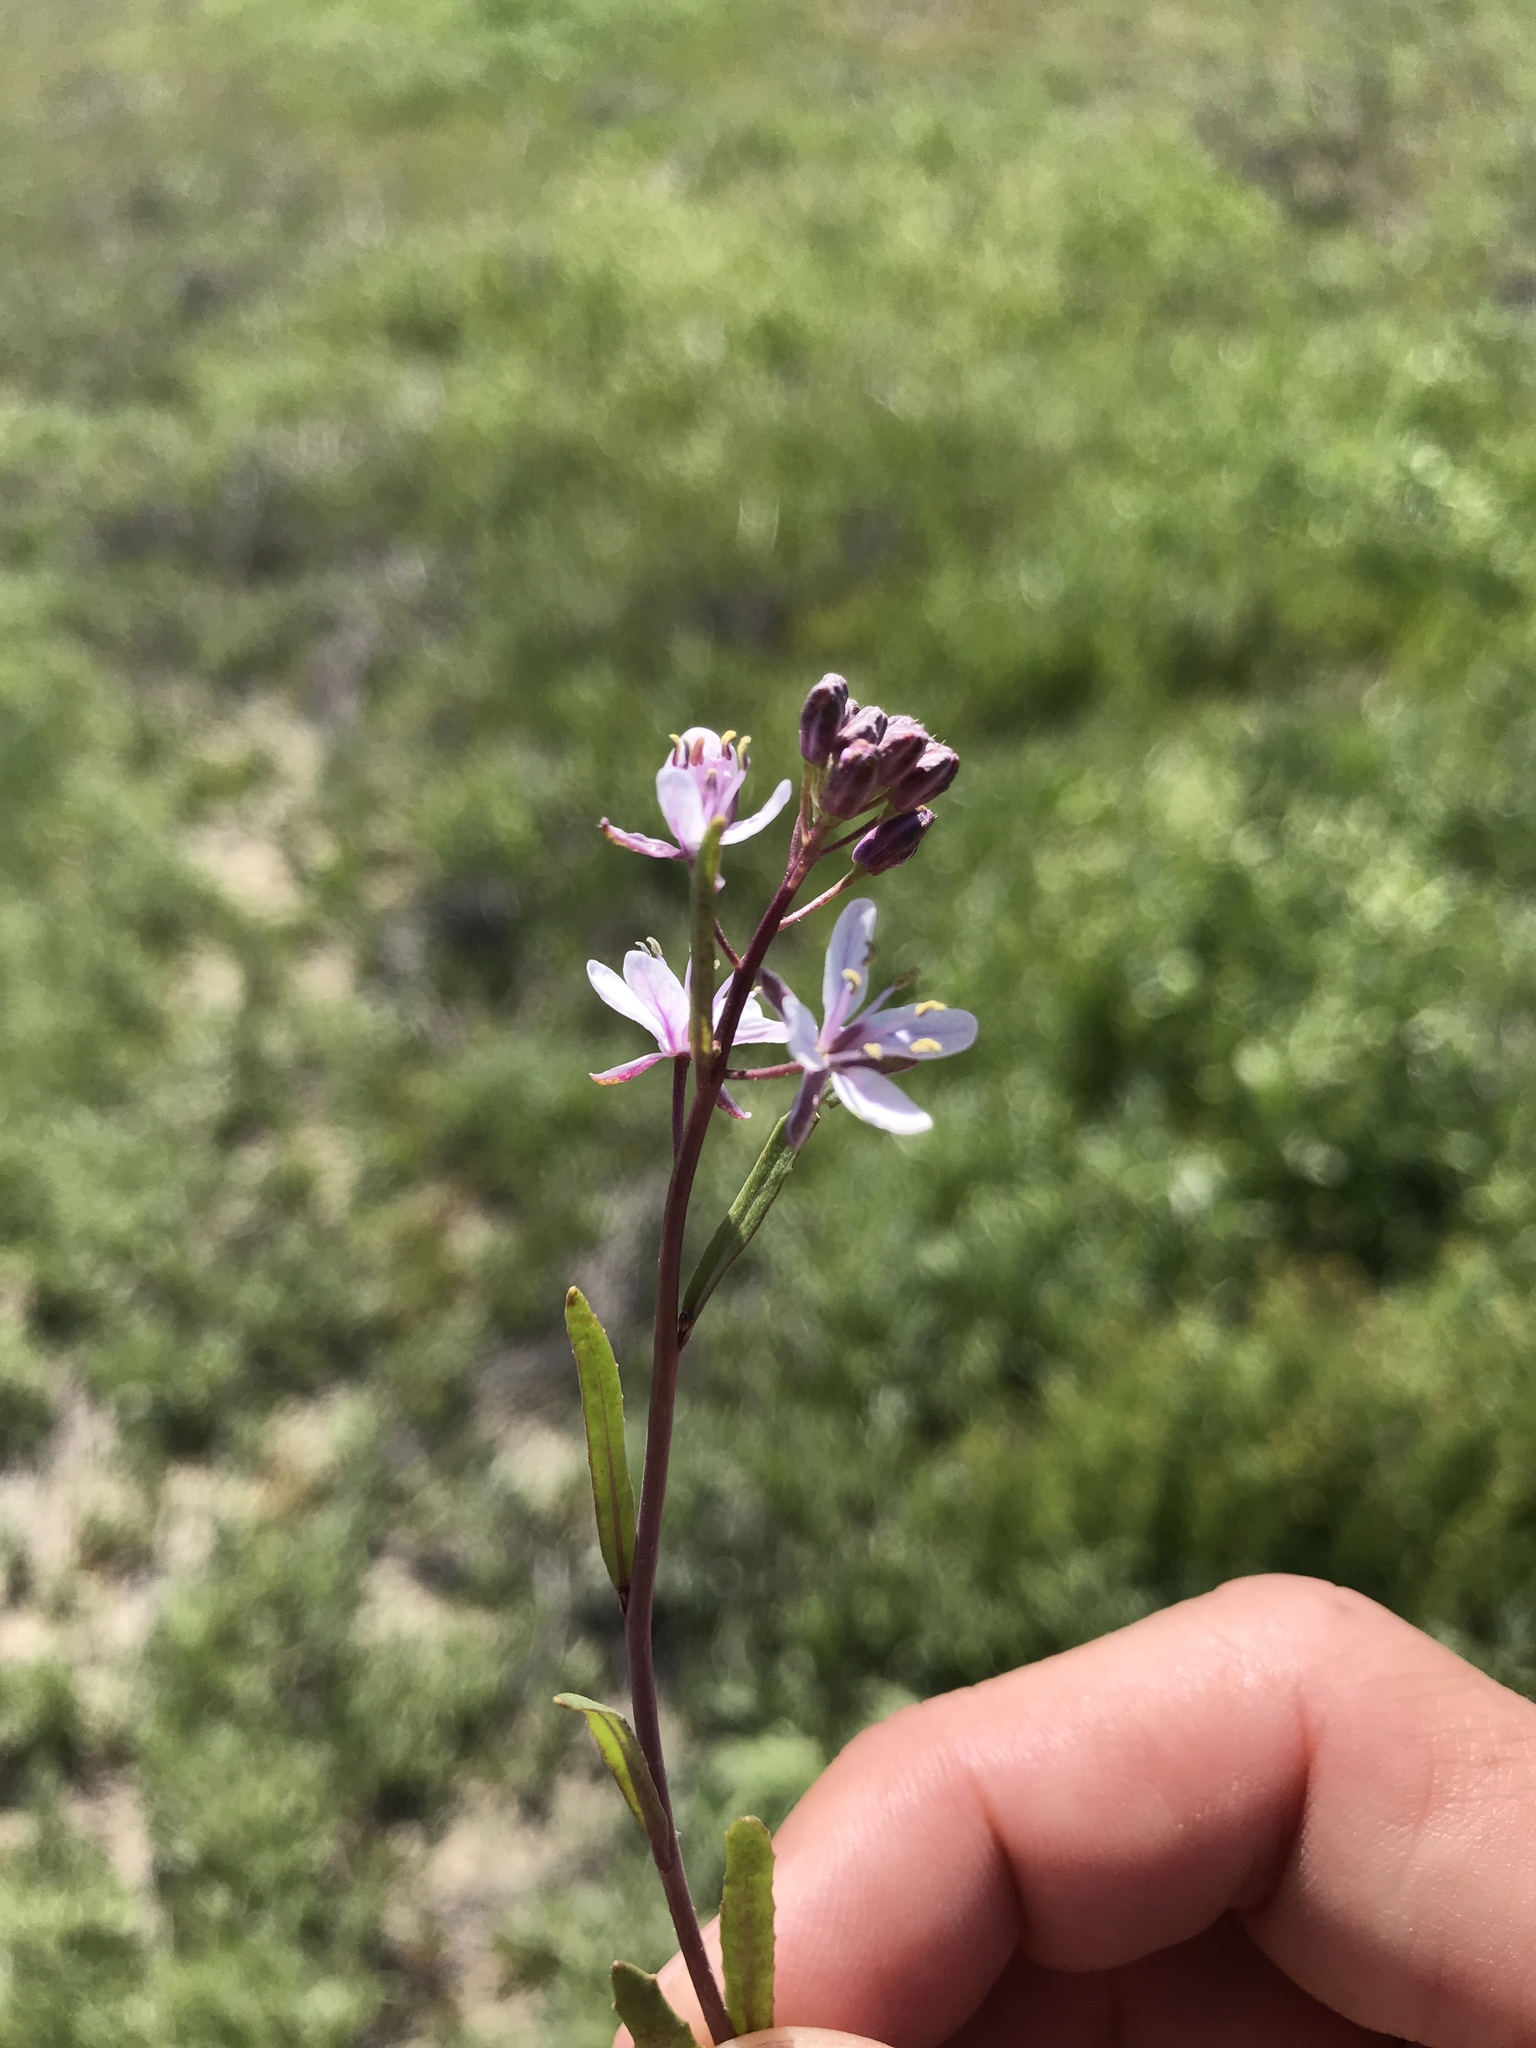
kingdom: Plantae
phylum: Tracheophyta
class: Magnoliopsida
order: Brassicales
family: Brassicaceae
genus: Streptanthus
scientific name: Streptanthus anceps
